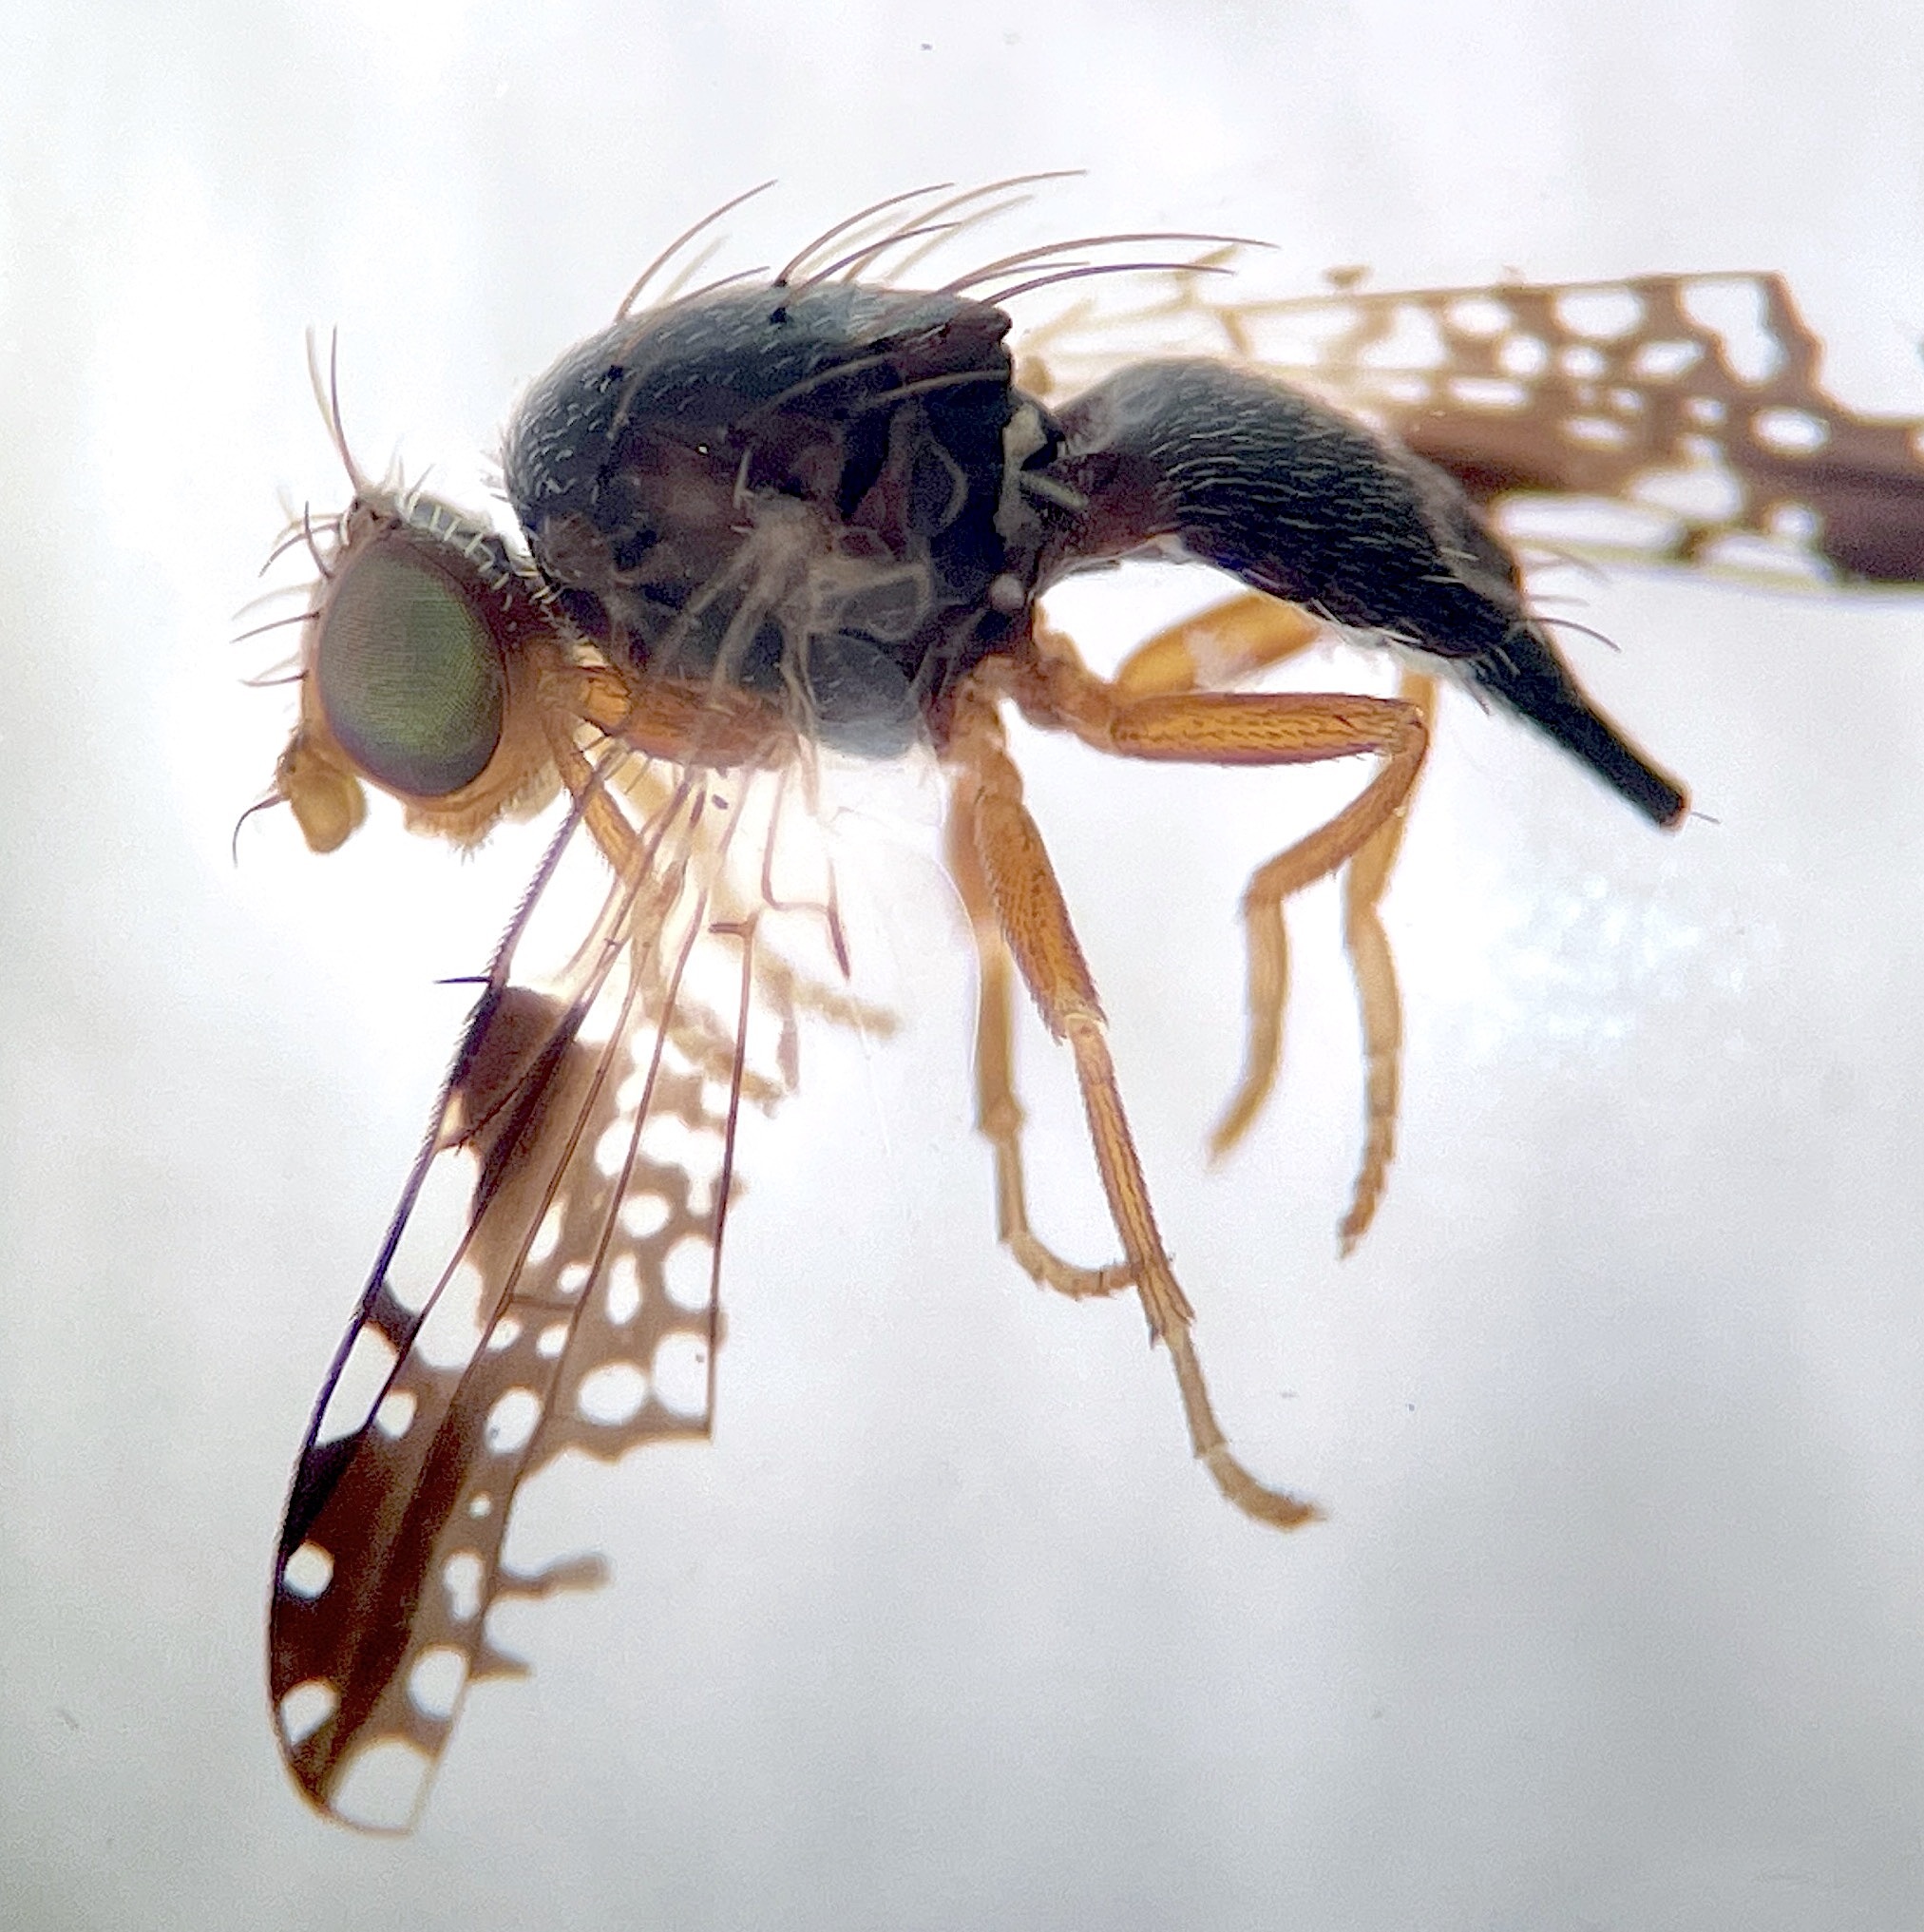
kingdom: Animalia
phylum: Arthropoda
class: Insecta
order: Diptera
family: Tephritidae
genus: Trupanea
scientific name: Trupanea extensa
